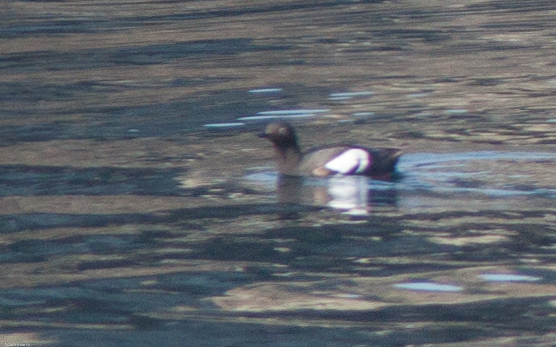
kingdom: Animalia
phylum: Chordata
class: Aves
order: Charadriiformes
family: Alcidae
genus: Cepphus
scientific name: Cepphus columba
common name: Pigeon guillemot
